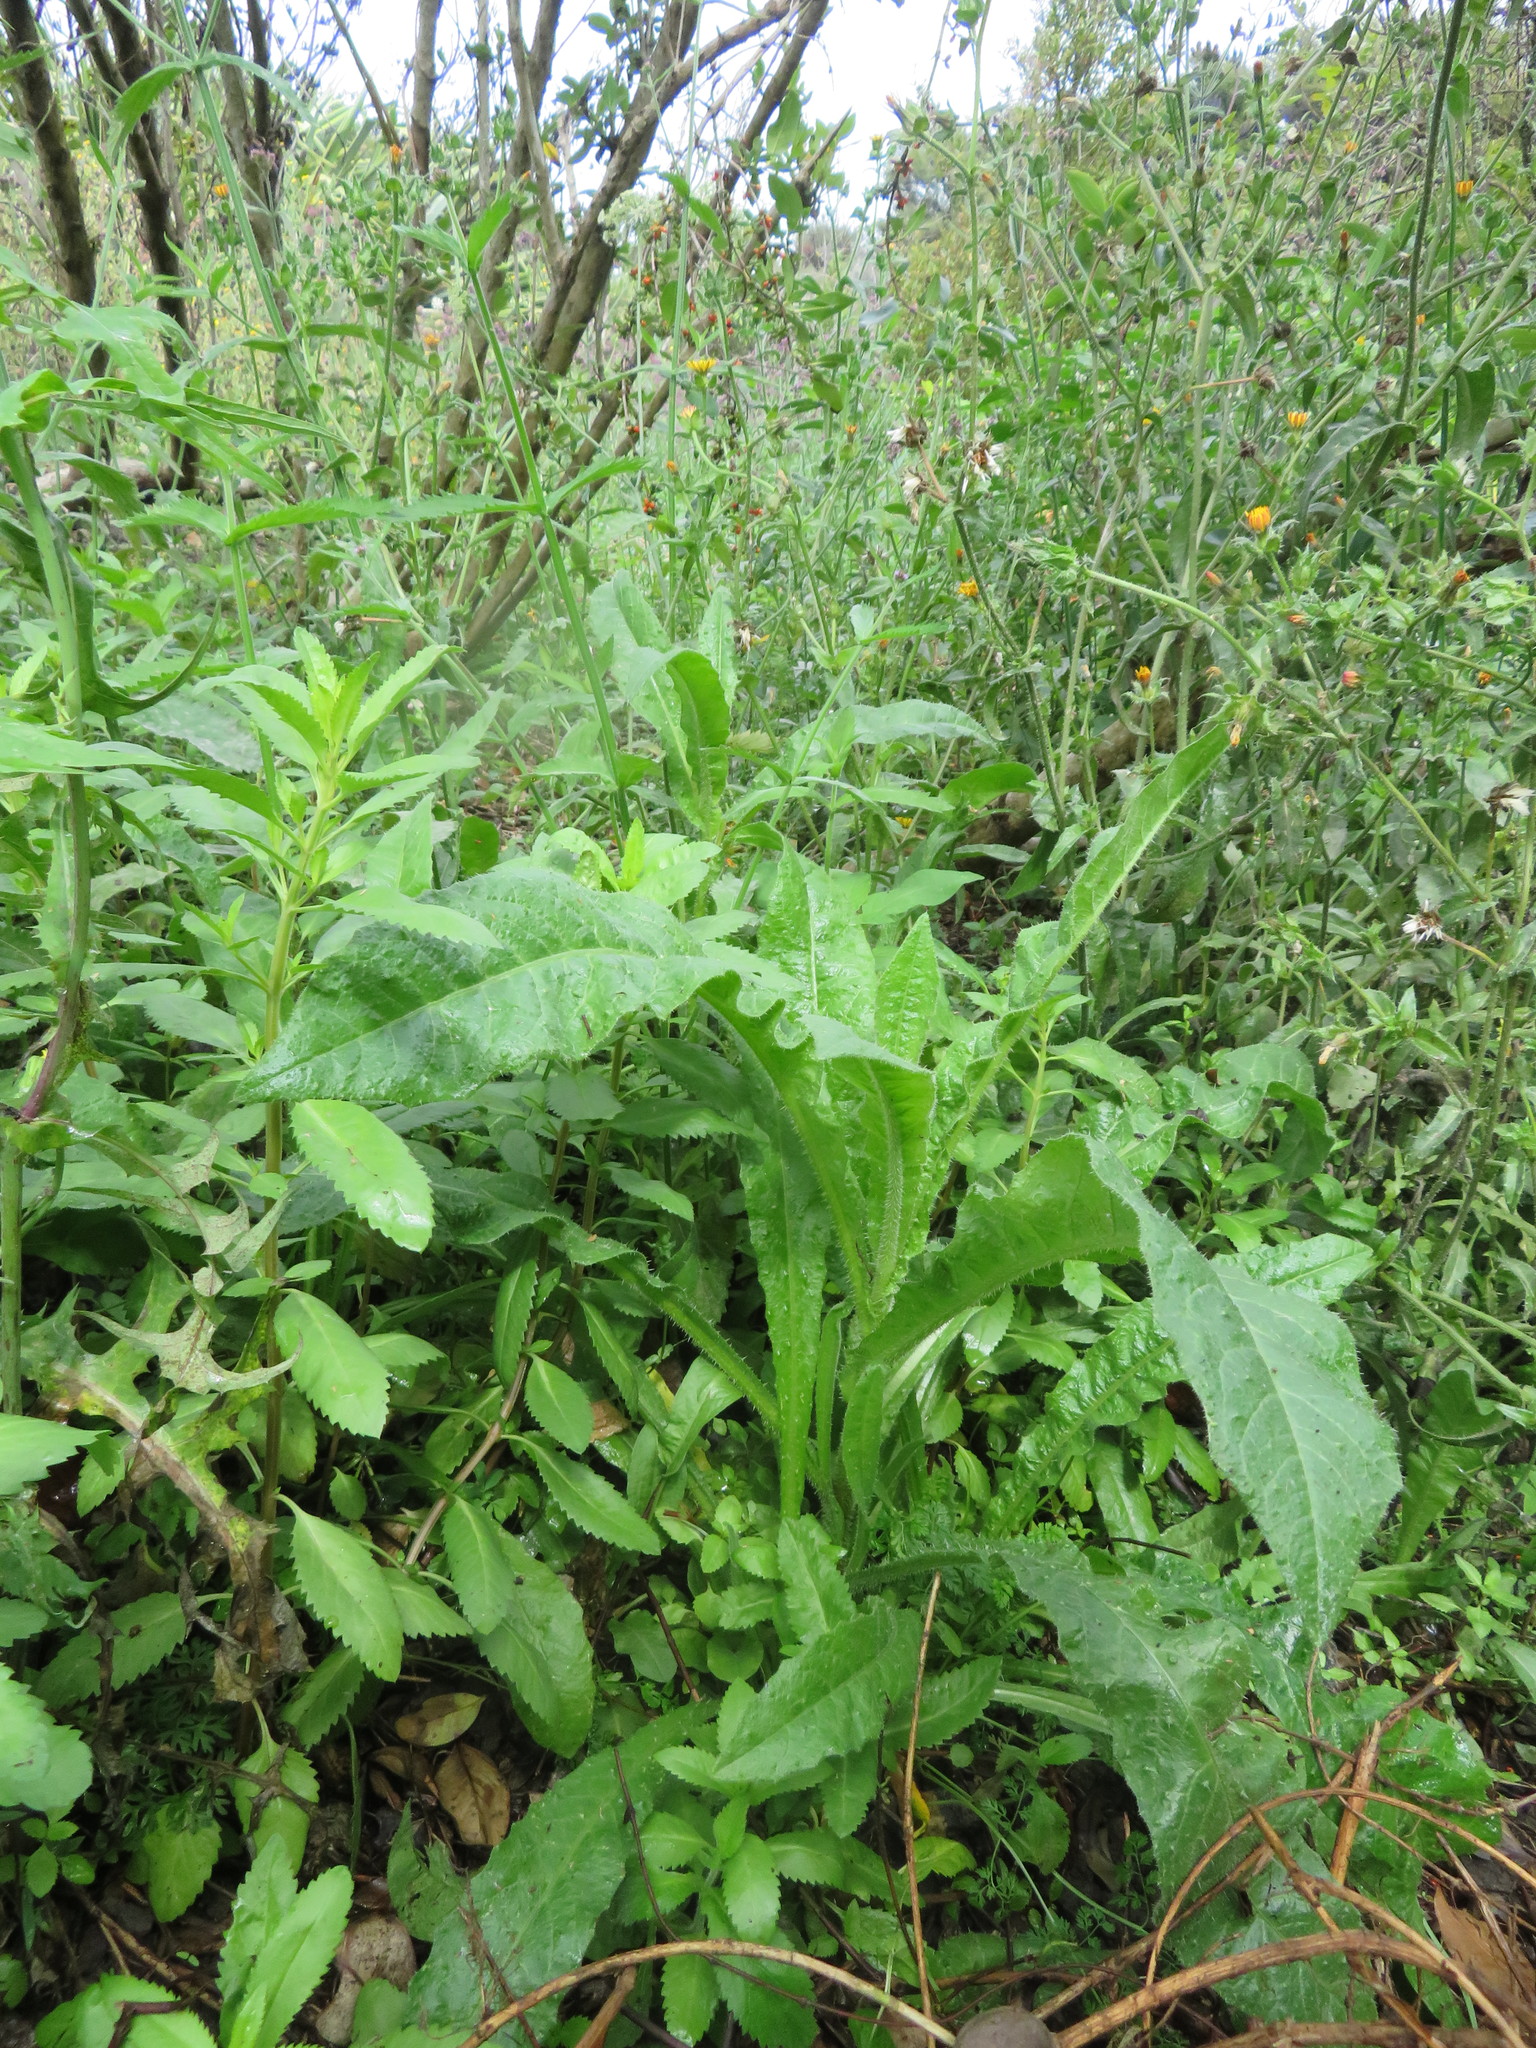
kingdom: Plantae
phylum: Tracheophyta
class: Magnoliopsida
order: Asterales
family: Asteraceae
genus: Helminthotheca
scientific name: Helminthotheca echioides
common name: Ox-tongue
